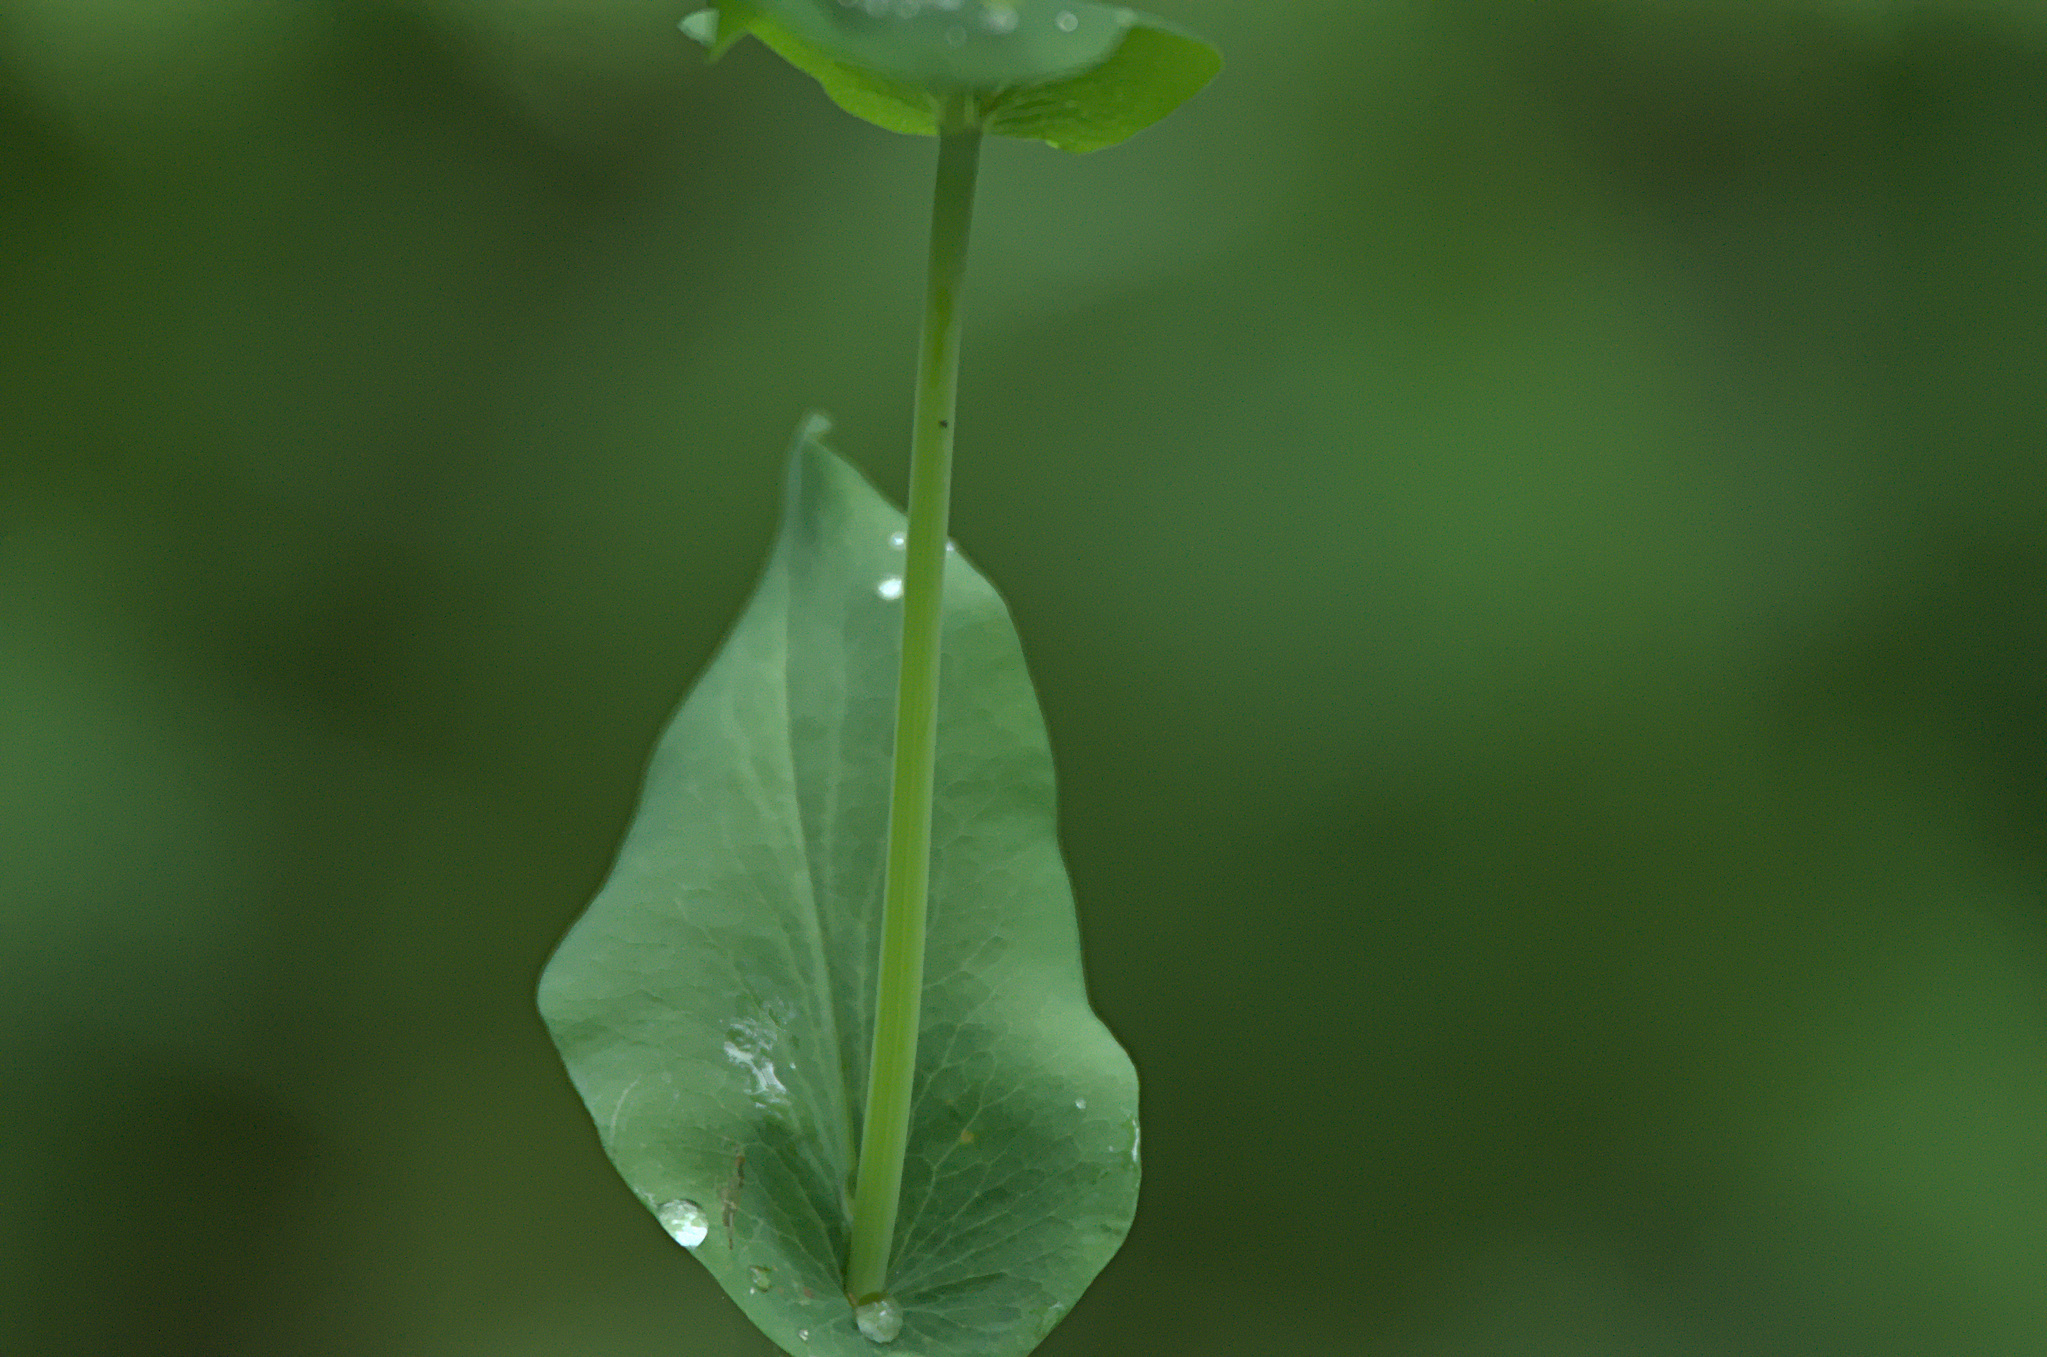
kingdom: Plantae
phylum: Tracheophyta
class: Magnoliopsida
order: Apiales
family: Apiaceae
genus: Bupleurum
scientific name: Bupleurum aureum
